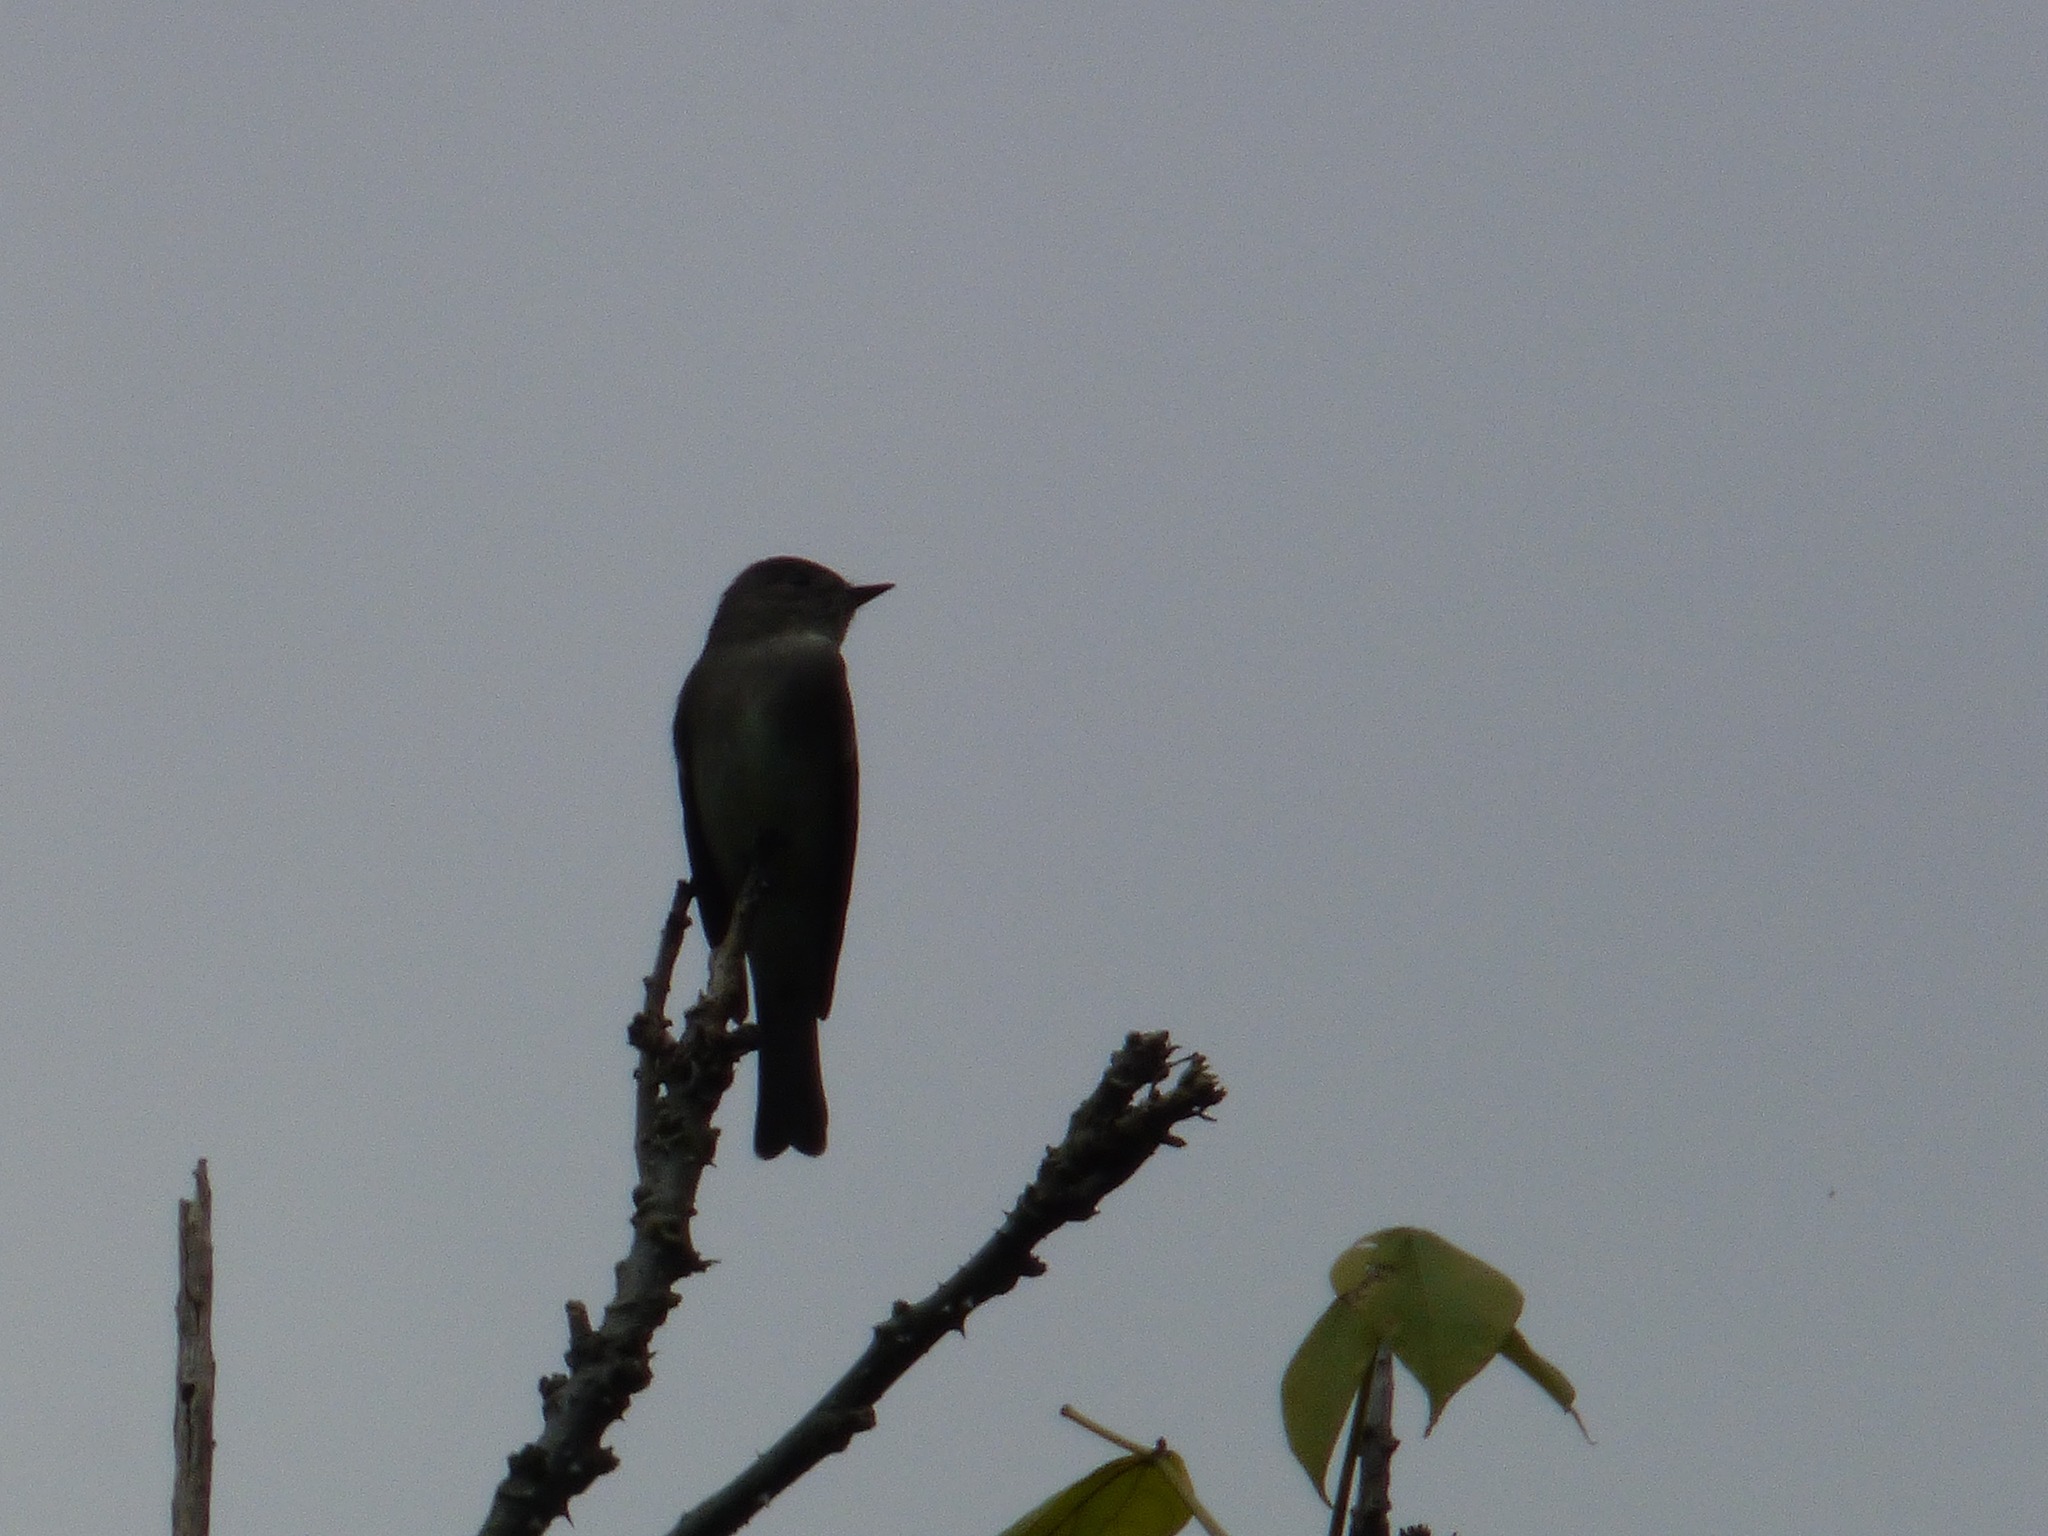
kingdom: Animalia
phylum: Chordata
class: Aves
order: Passeriformes
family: Tyrannidae
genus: Contopus
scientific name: Contopus sordidulus
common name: Western wood-pewee
